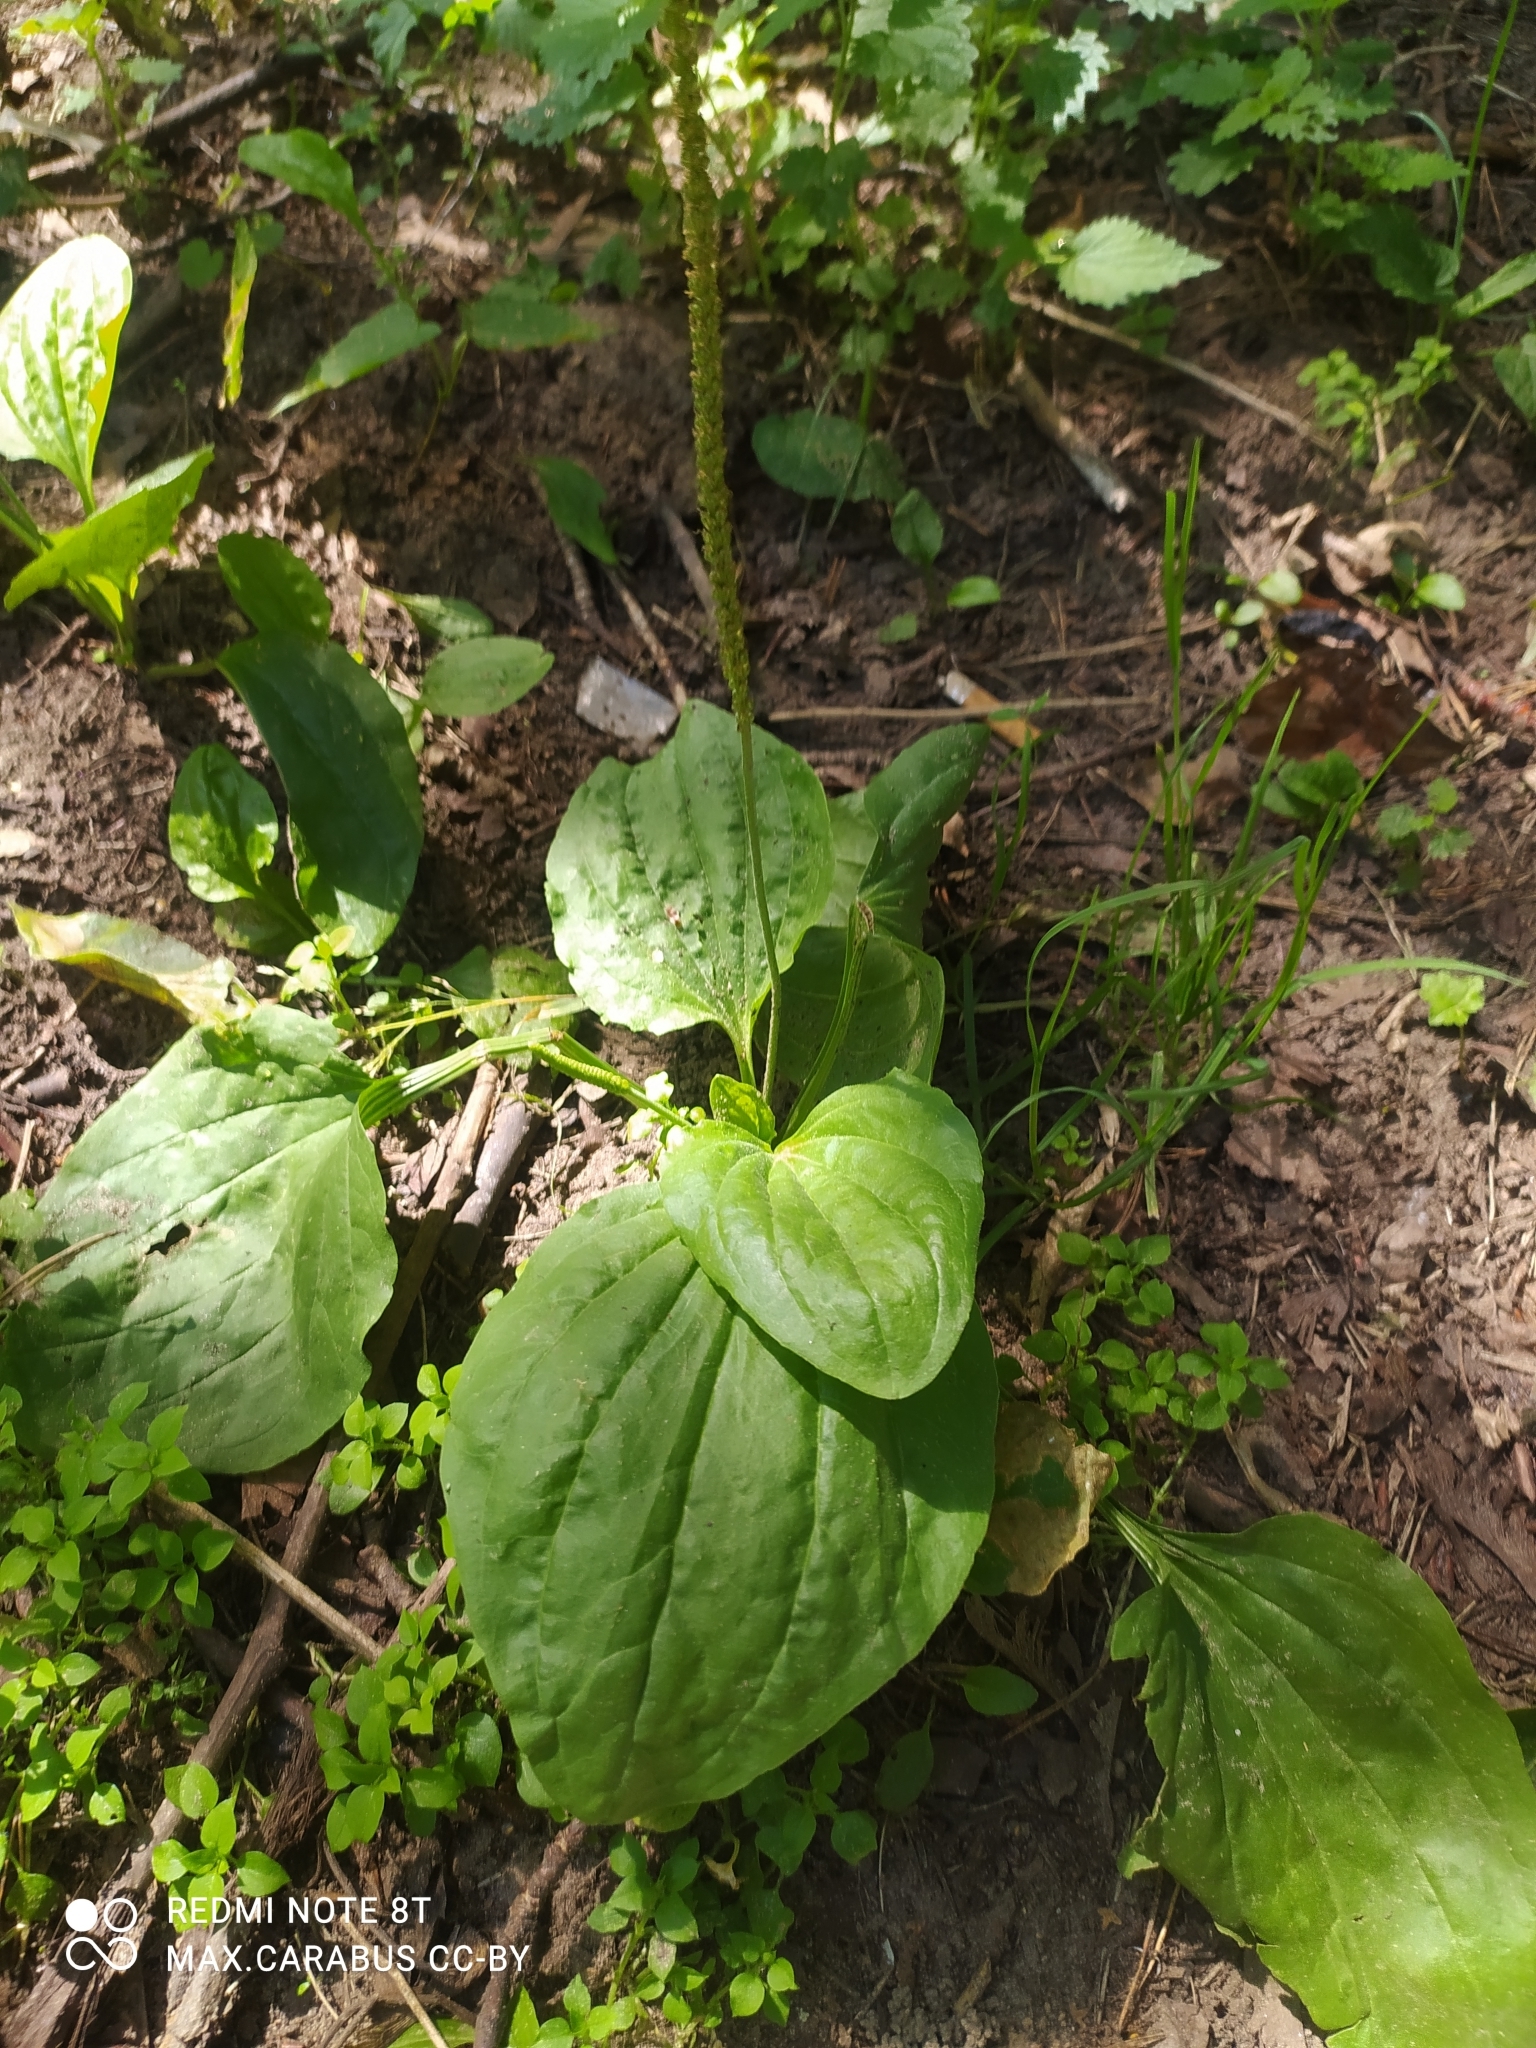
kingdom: Plantae
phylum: Tracheophyta
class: Magnoliopsida
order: Lamiales
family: Plantaginaceae
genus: Plantago
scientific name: Plantago major
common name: Common plantain
